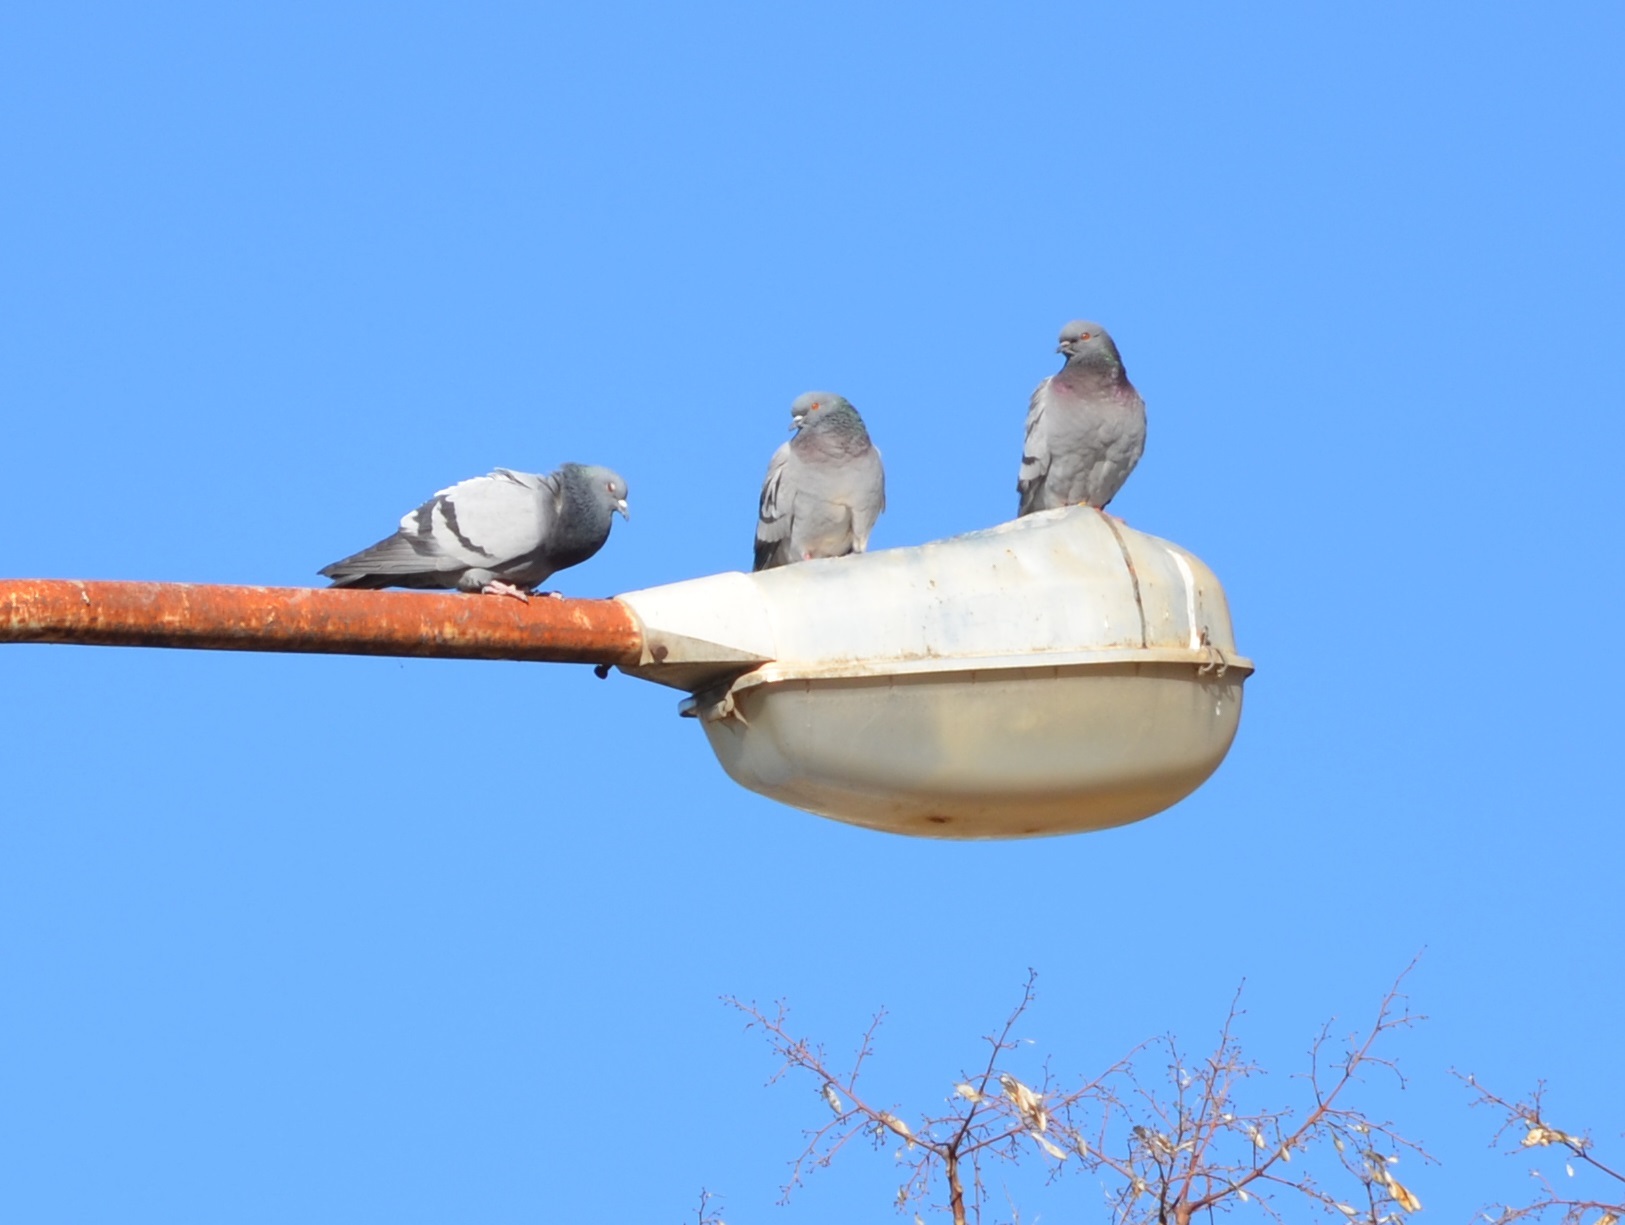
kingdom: Animalia
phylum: Chordata
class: Aves
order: Columbiformes
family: Columbidae
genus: Columba
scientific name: Columba livia
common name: Rock pigeon
